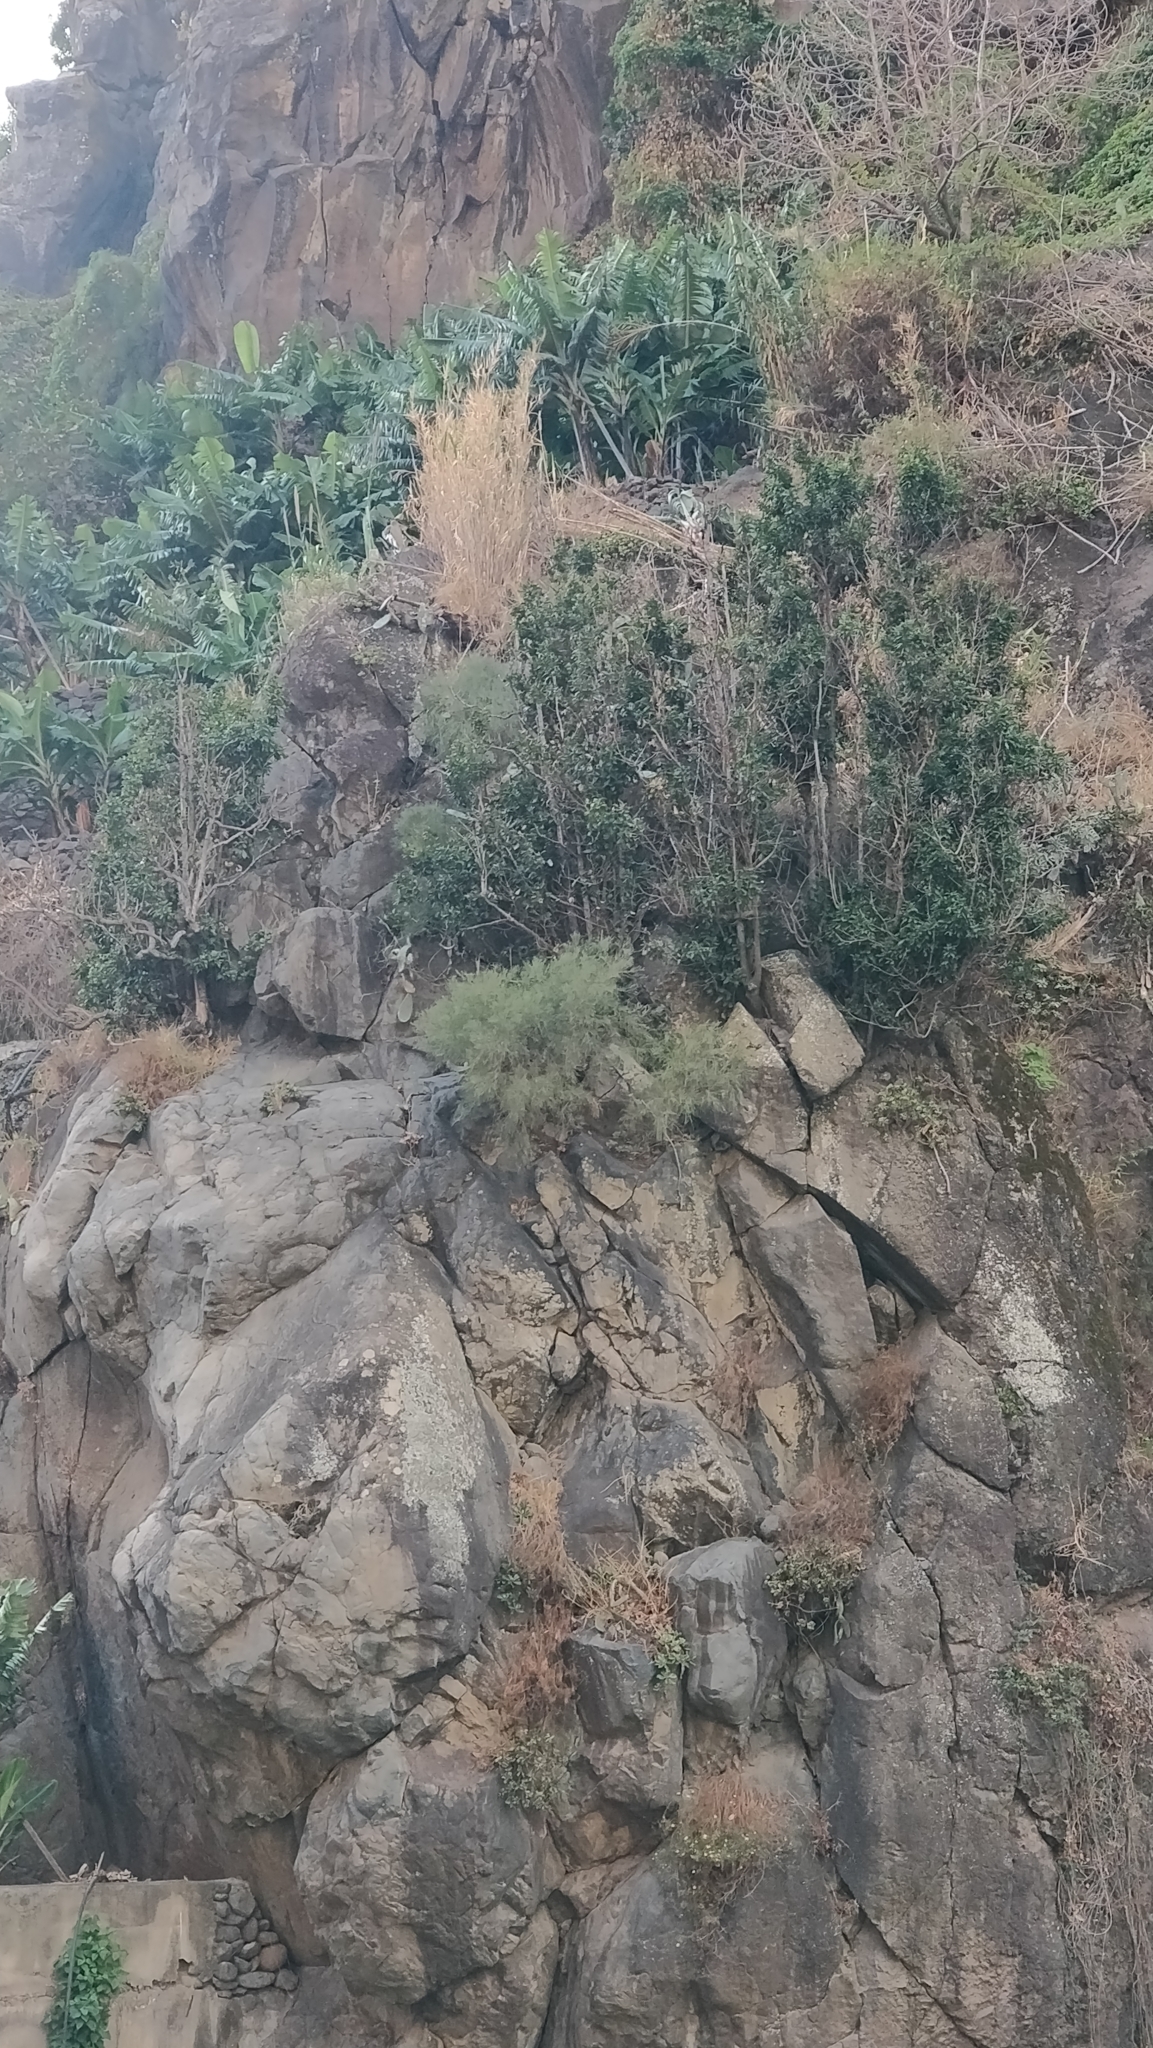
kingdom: Plantae
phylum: Tracheophyta
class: Magnoliopsida
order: Fabales
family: Fabaceae
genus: Genista
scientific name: Genista tenera
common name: Madeira broom
